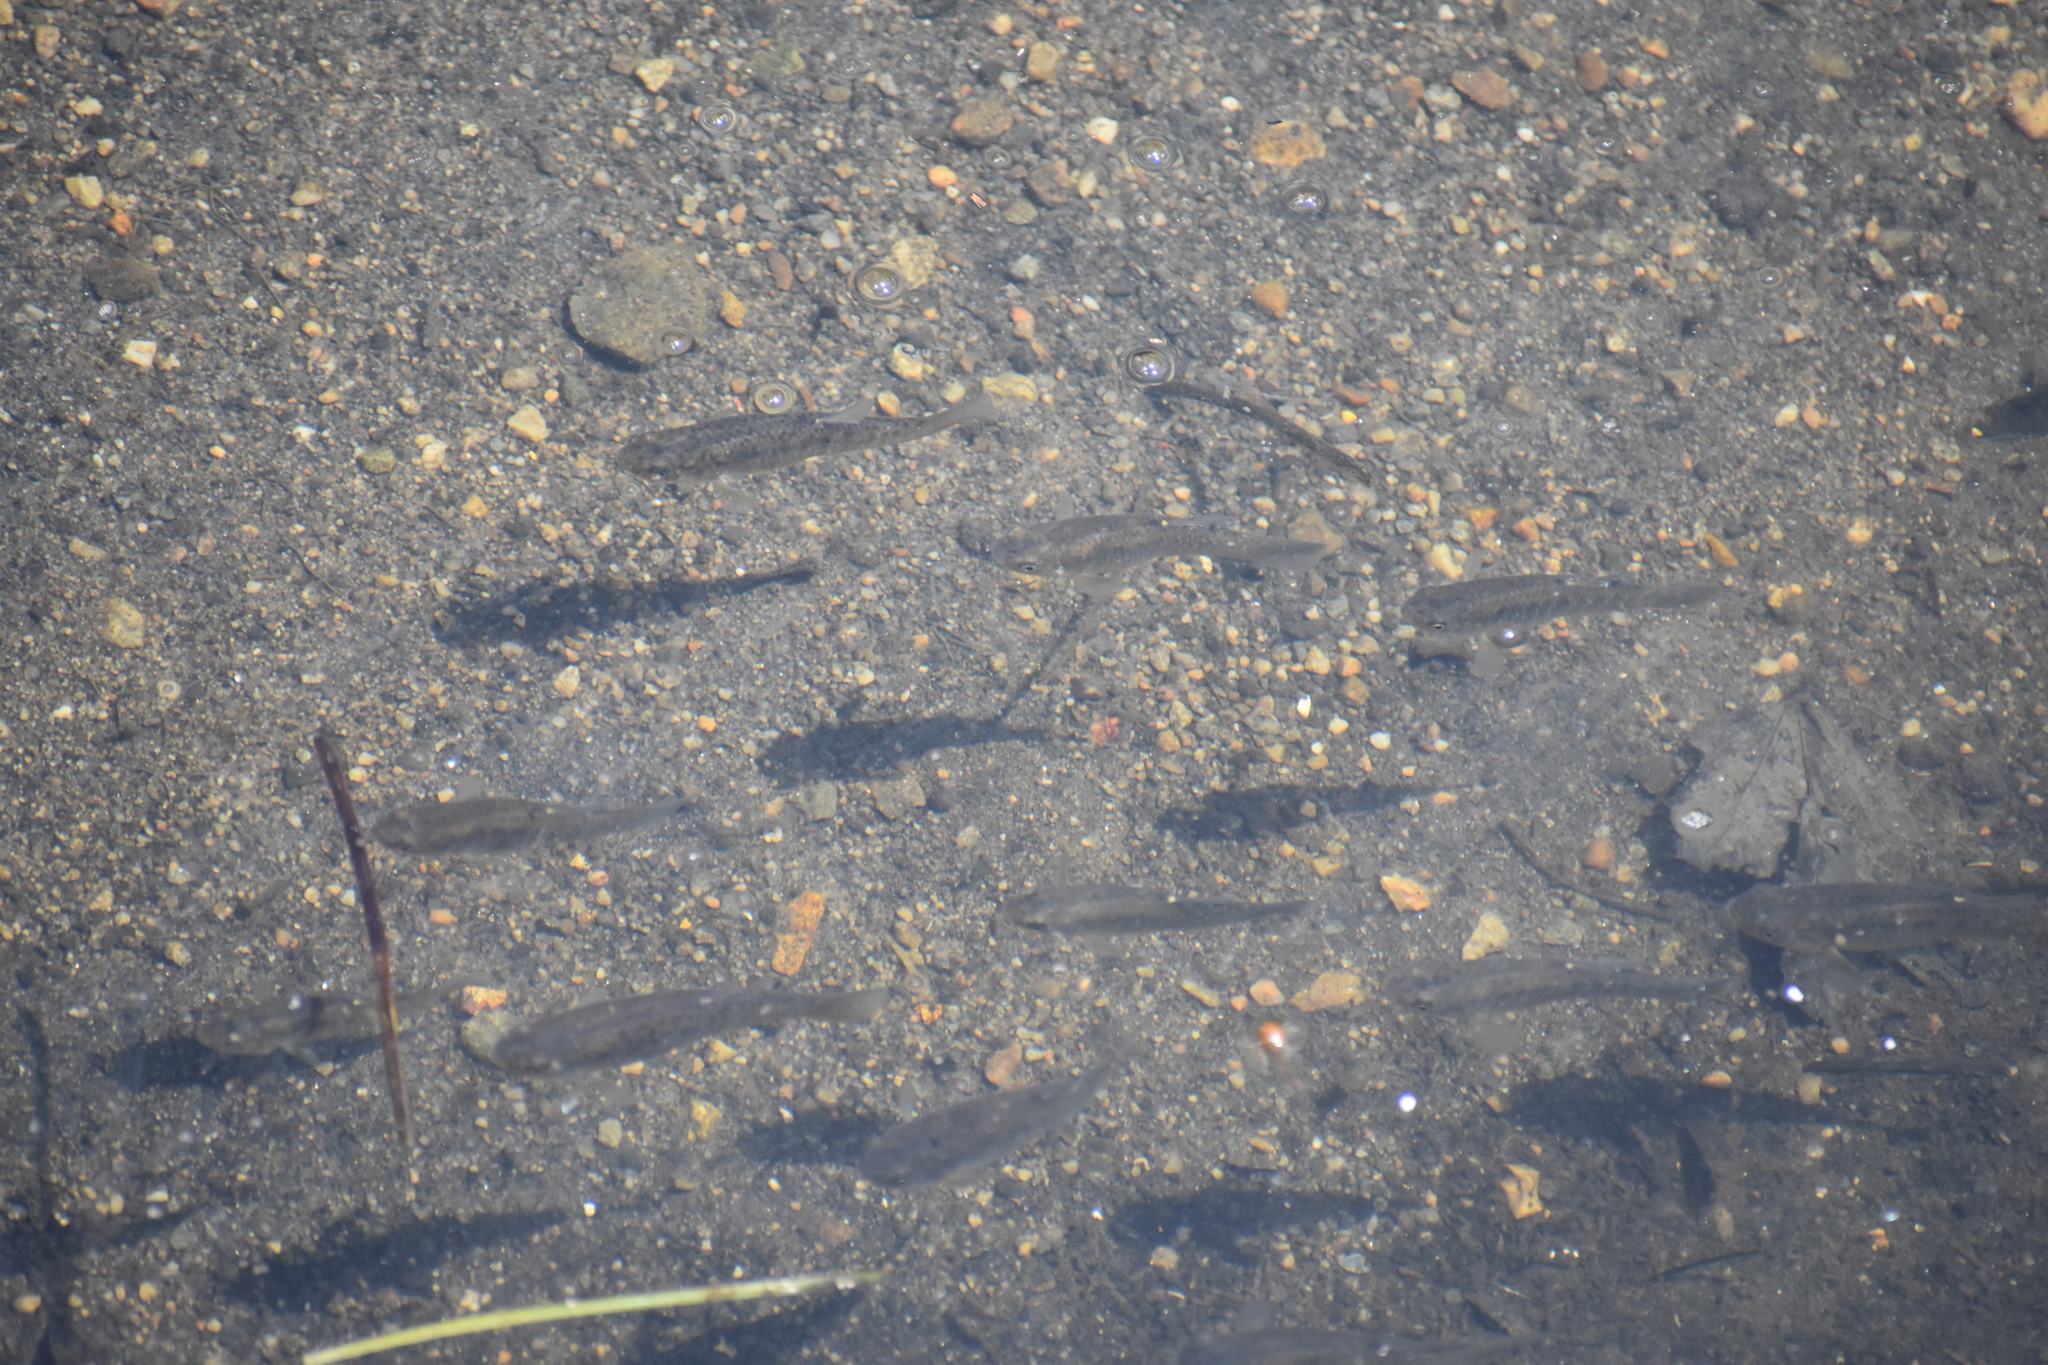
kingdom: Animalia
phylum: Chordata
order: Cyprinodontiformes
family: Fundulidae
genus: Fundulus
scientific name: Fundulus heteroclitus
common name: Mummichog
